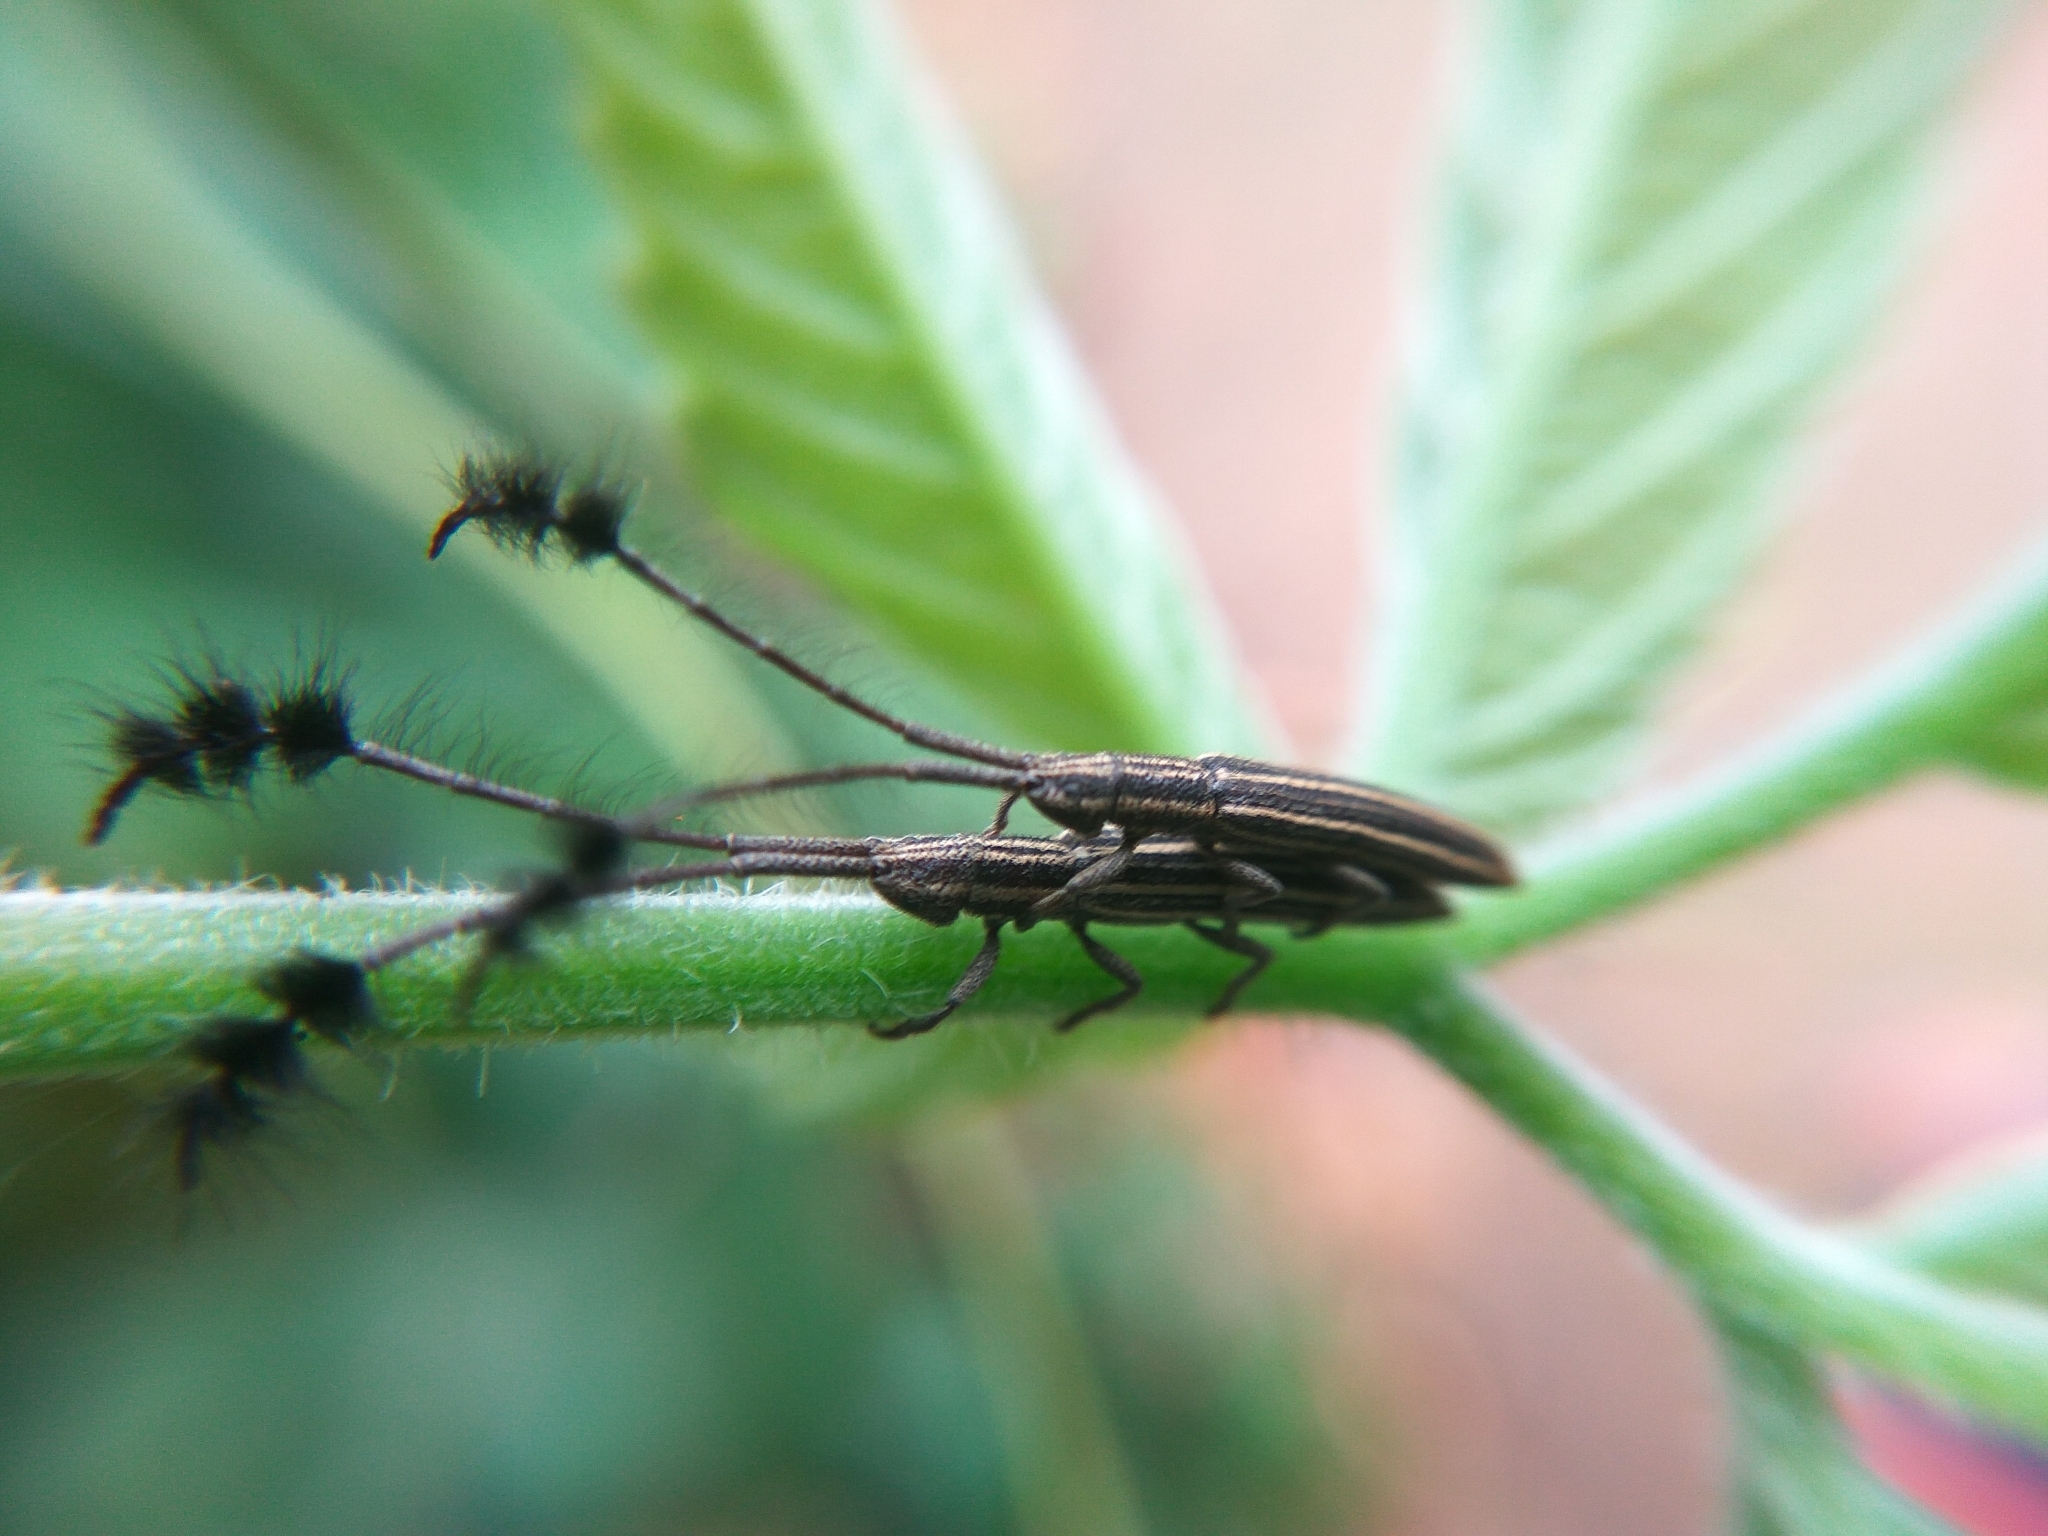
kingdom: Animalia
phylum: Arthropoda
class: Insecta
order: Coleoptera
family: Cerambycidae
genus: Eucomatocera
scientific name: Eucomatocera vittata
